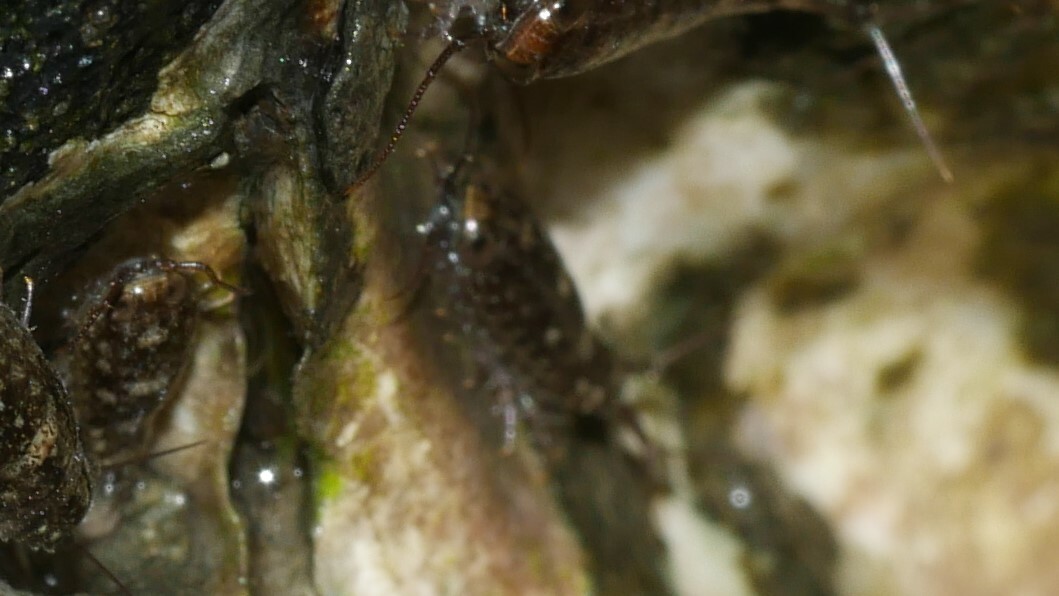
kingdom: Animalia
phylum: Arthropoda
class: Malacostraca
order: Isopoda
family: Ligiidae
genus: Ligia
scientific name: Ligia exotica
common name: Wharf roach
